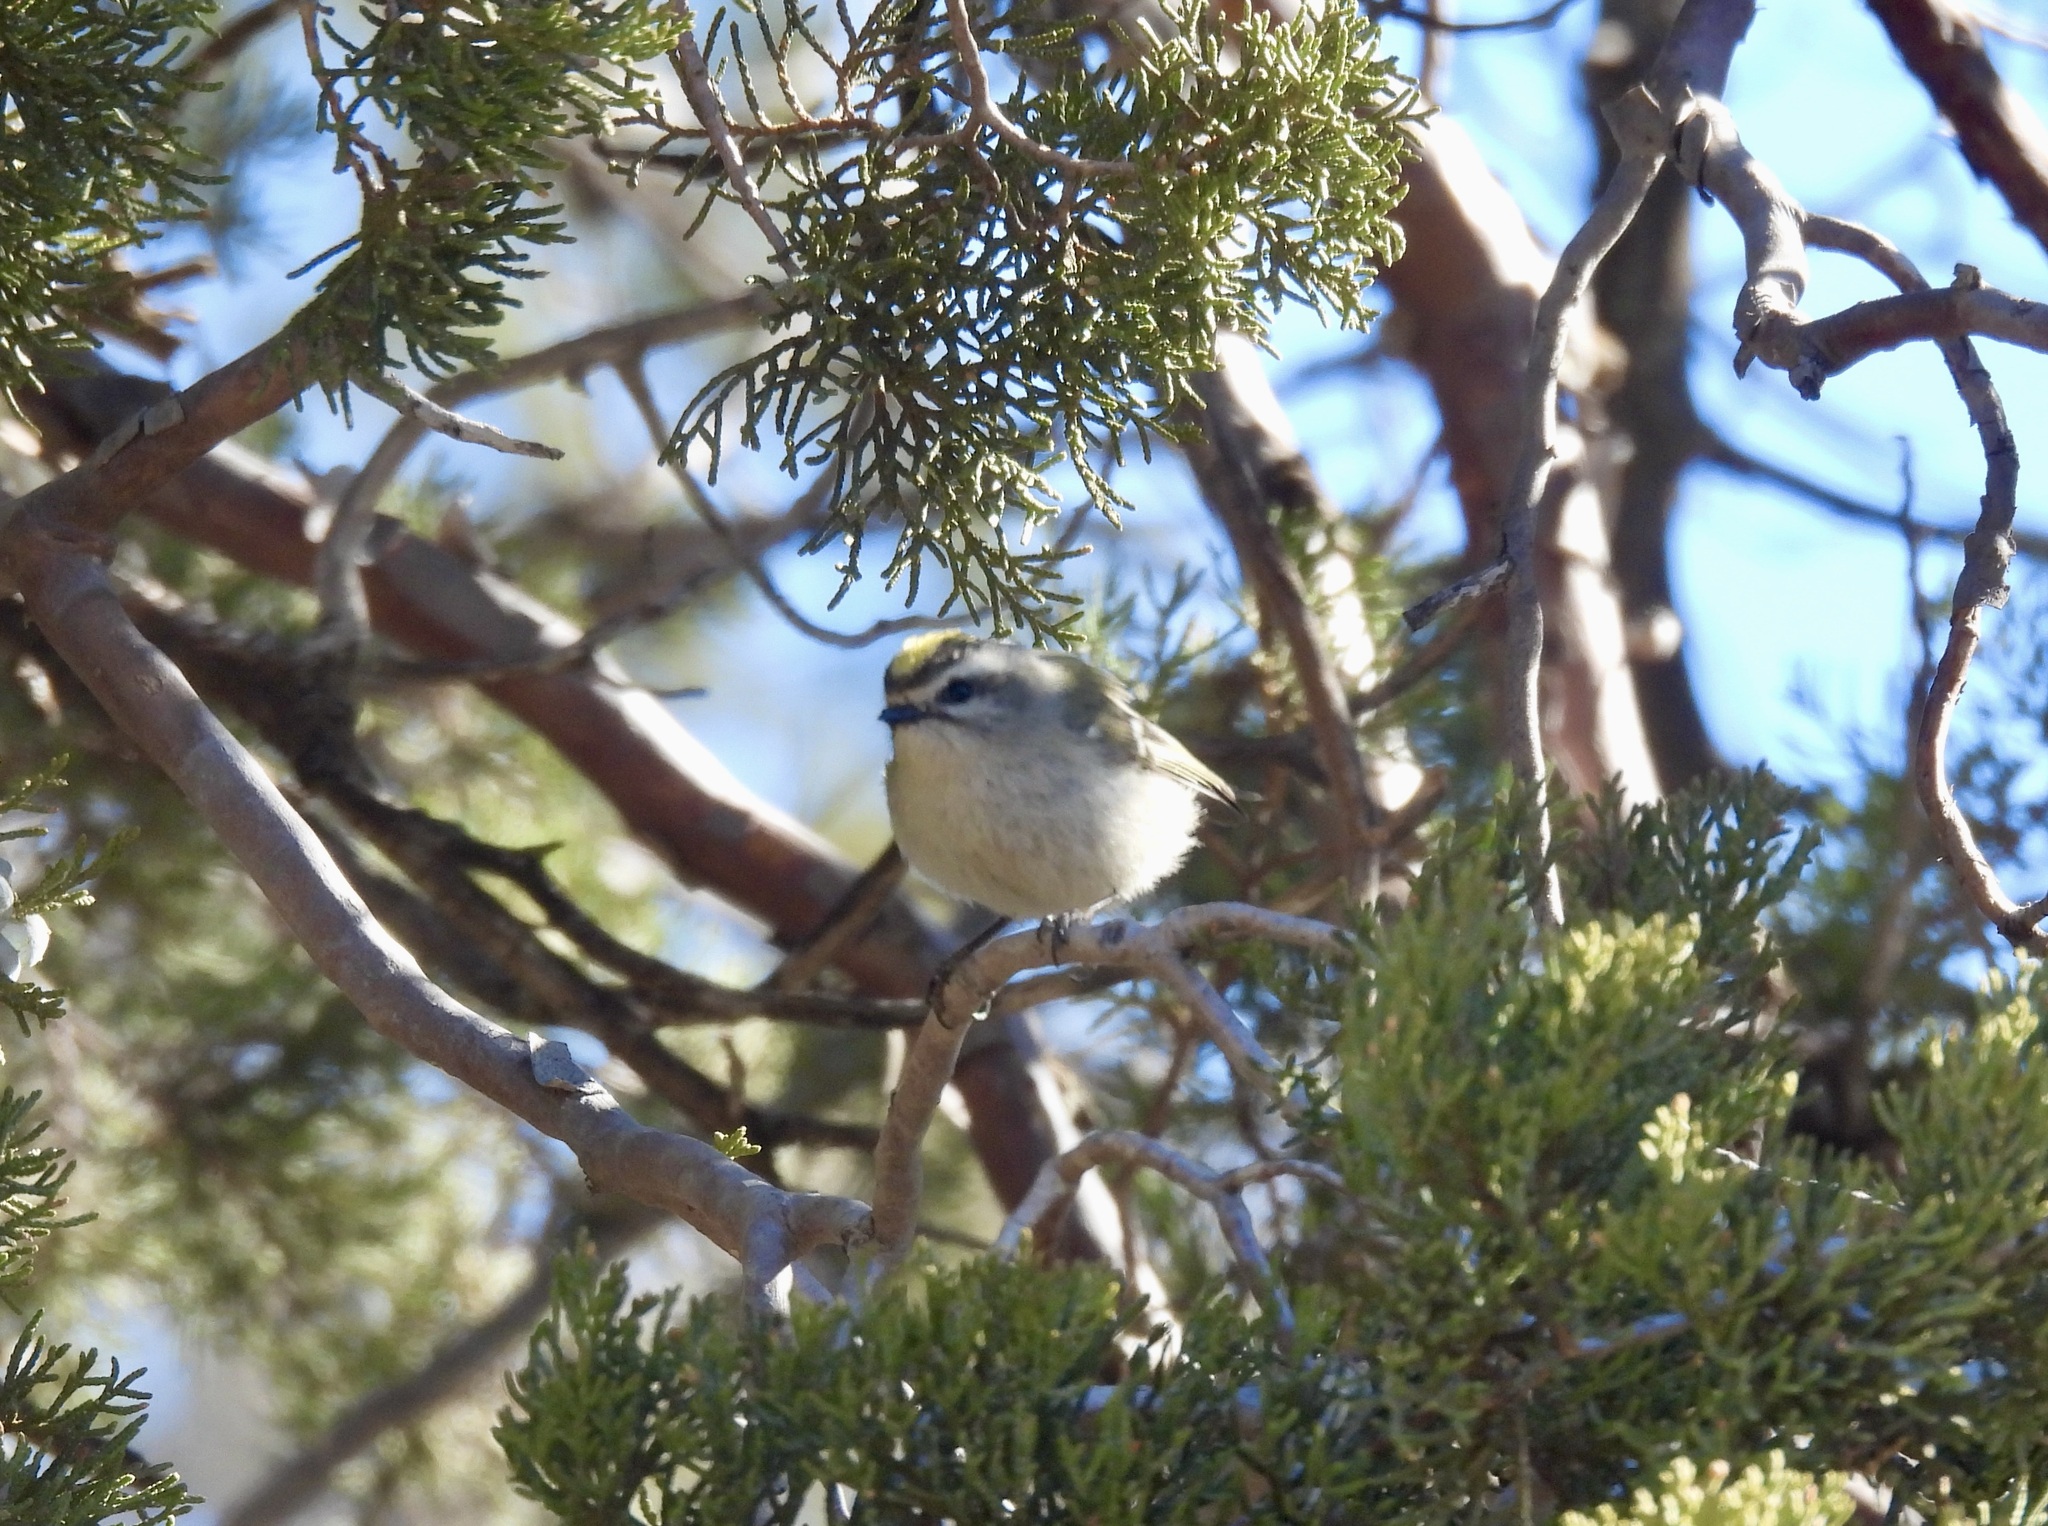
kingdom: Animalia
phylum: Chordata
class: Aves
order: Passeriformes
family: Regulidae
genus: Regulus
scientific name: Regulus satrapa
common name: Golden-crowned kinglet
